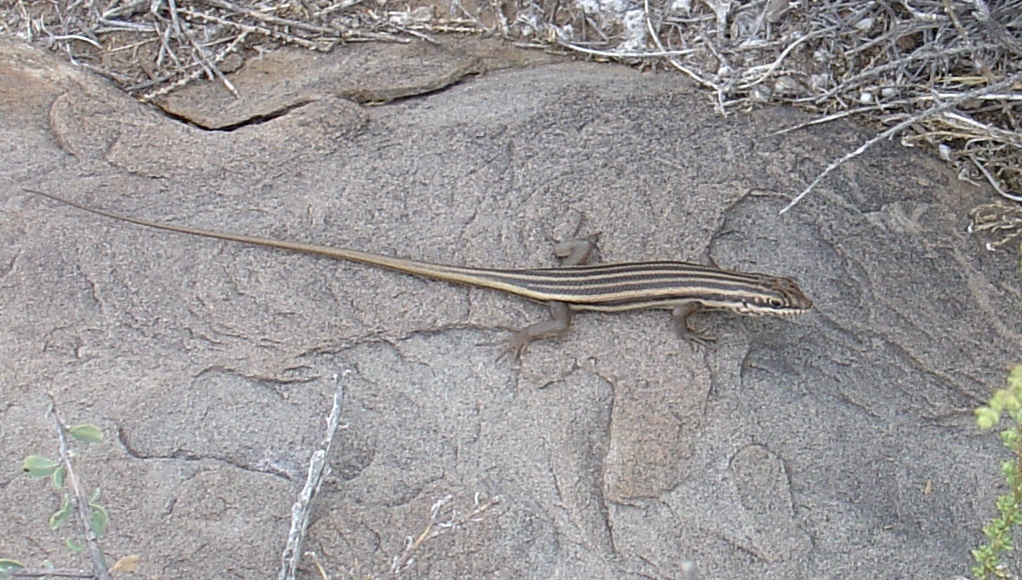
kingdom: Animalia
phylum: Chordata
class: Squamata
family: Scincidae
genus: Trachylepis
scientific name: Trachylepis sulcata
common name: Western rock skink
